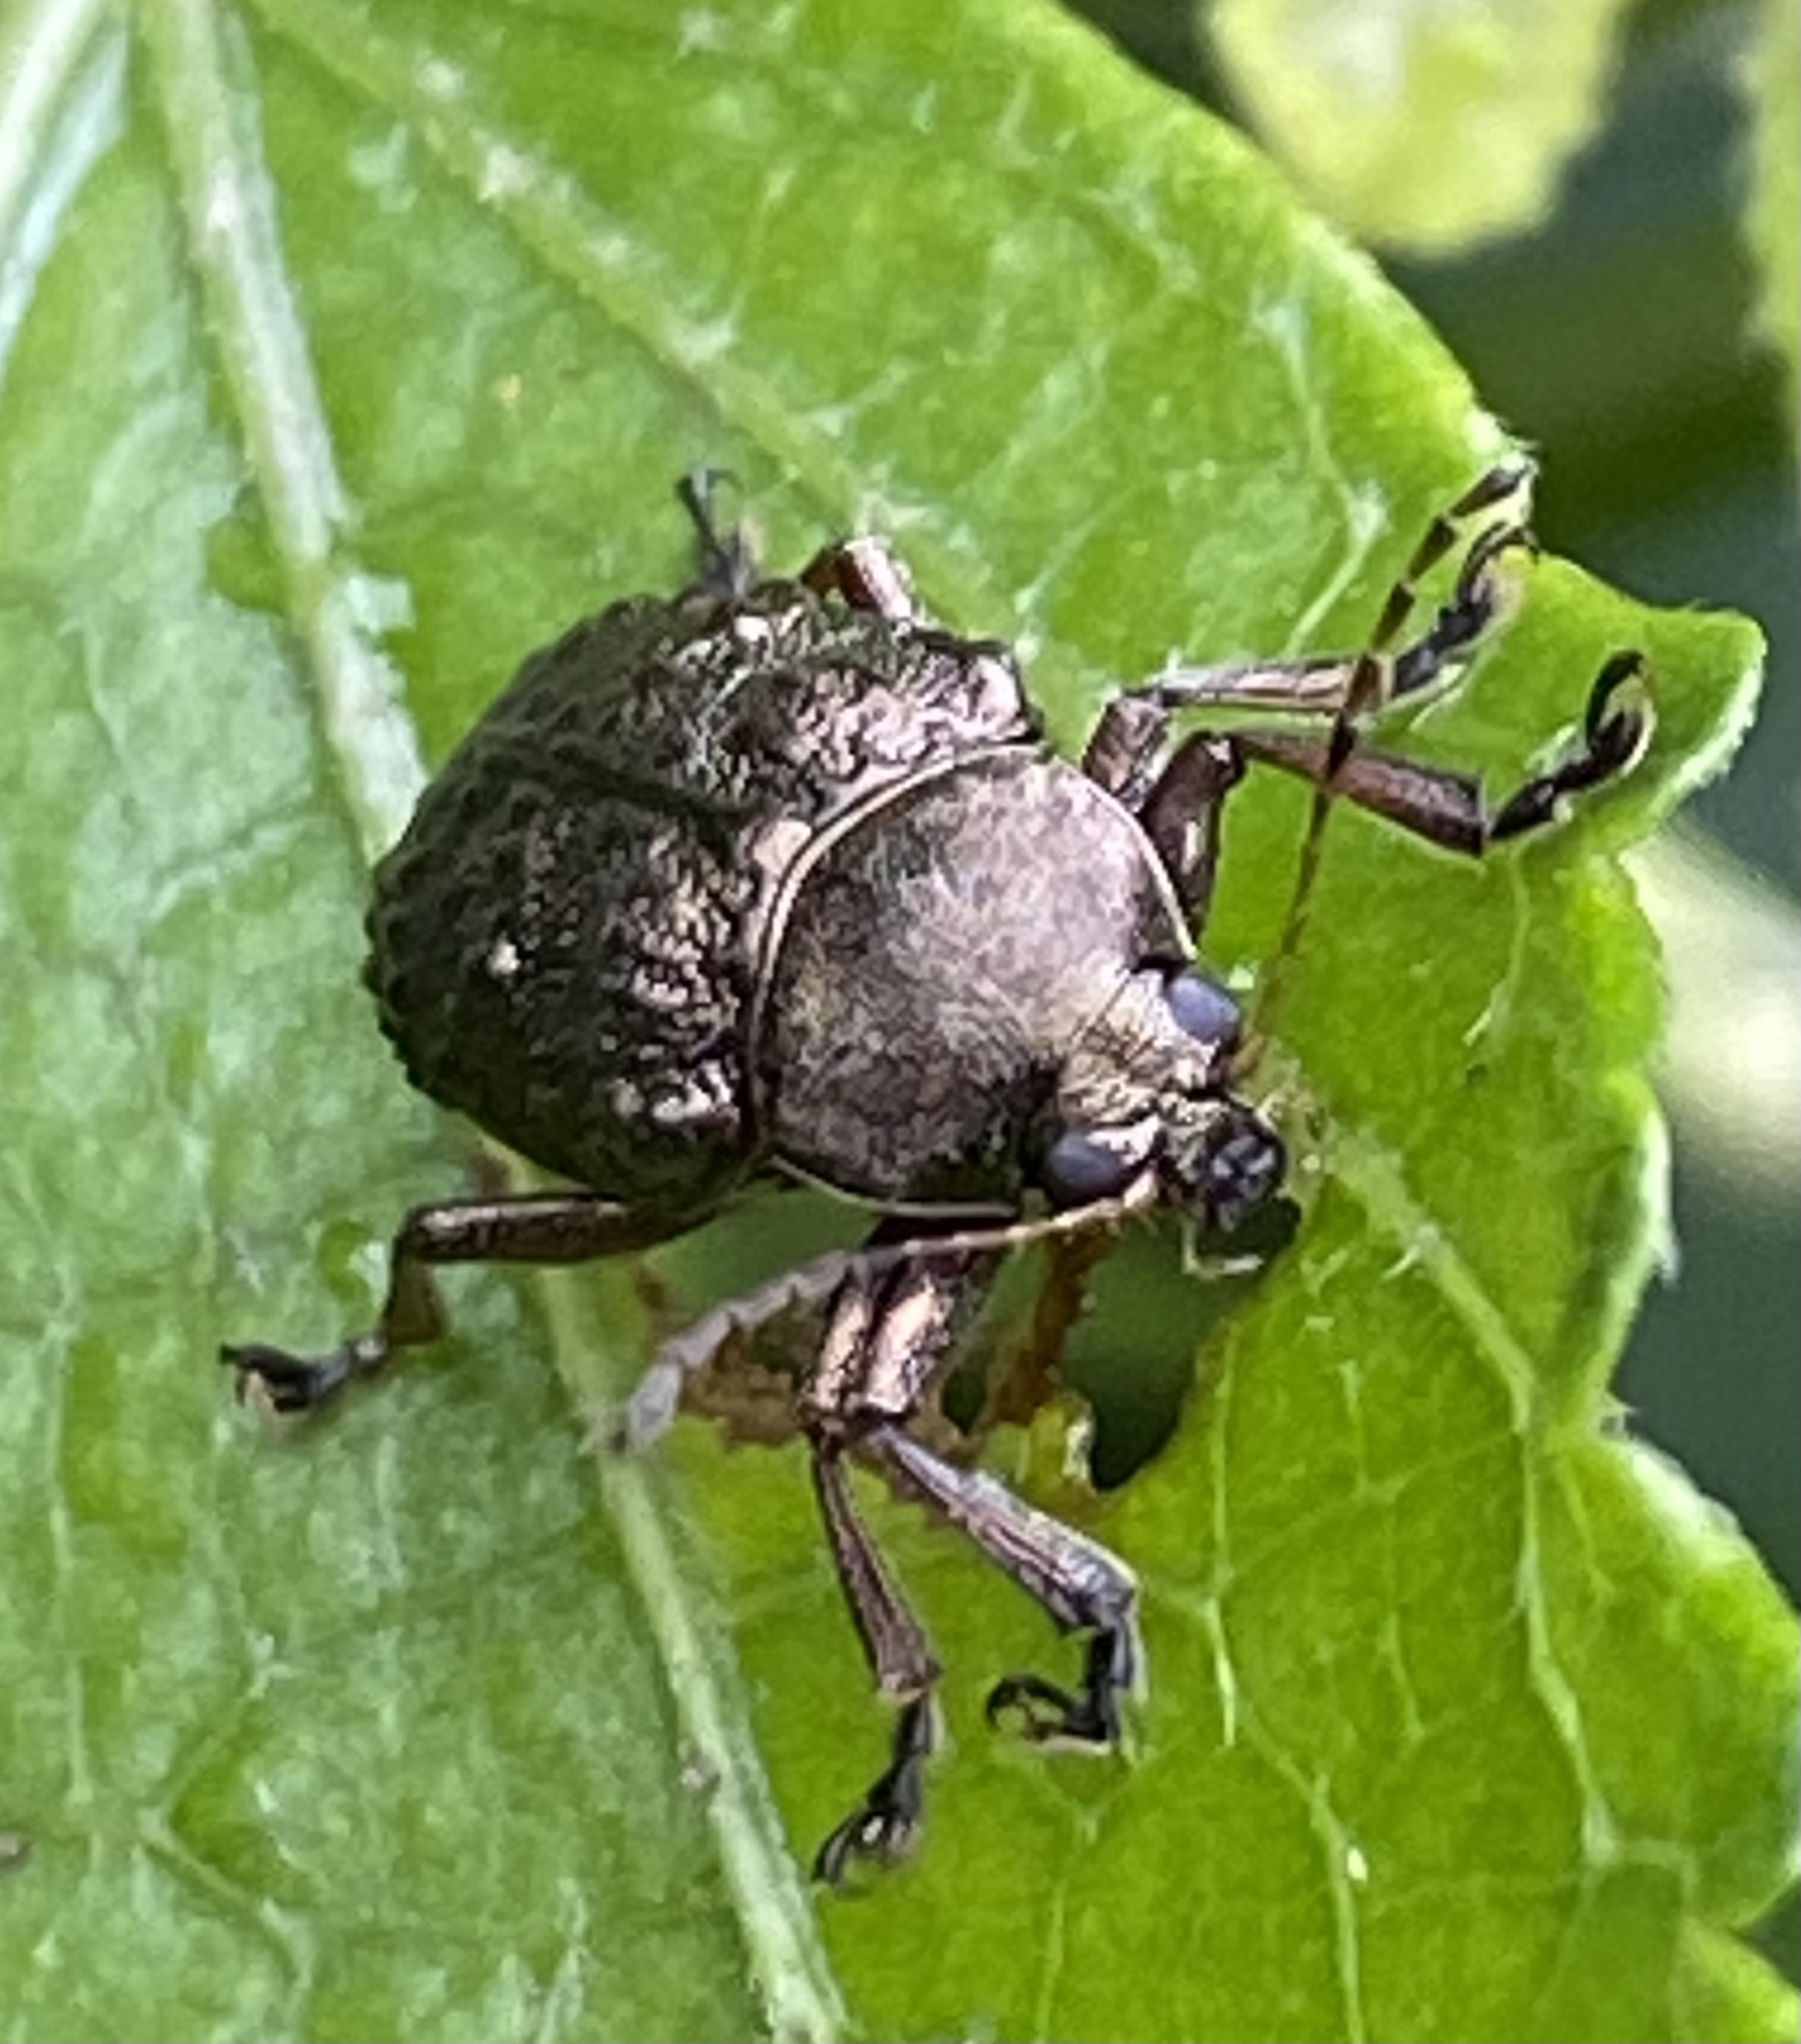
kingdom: Animalia
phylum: Arthropoda
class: Insecta
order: Coleoptera
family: Chrysomelidae
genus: Lepronota
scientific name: Lepronota
